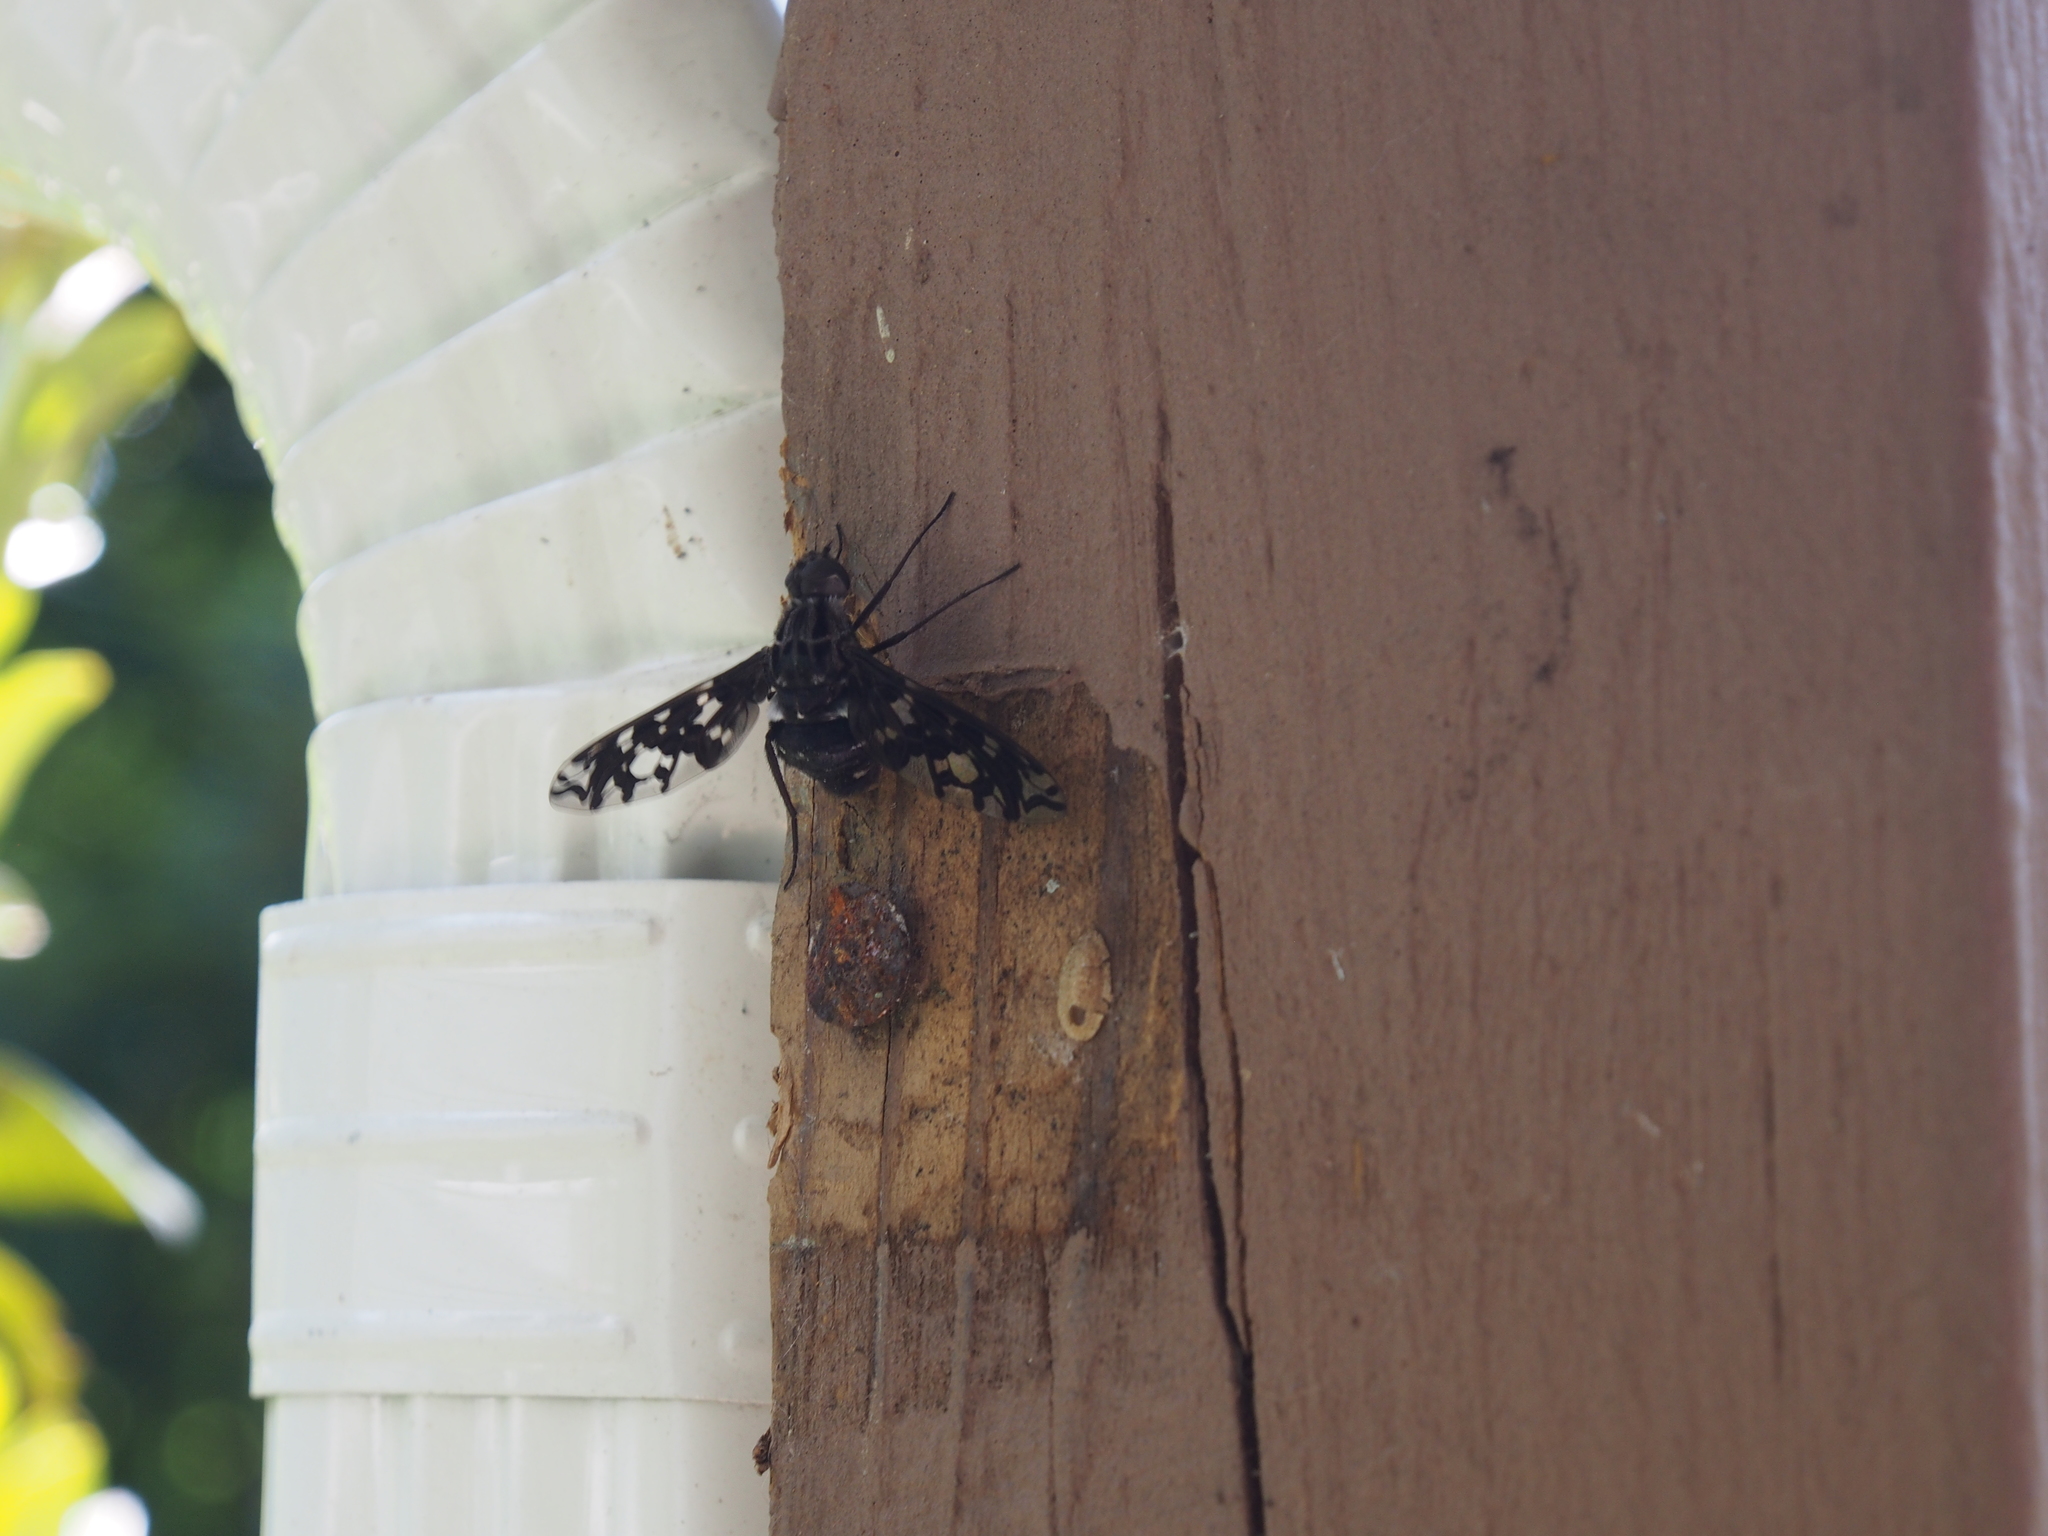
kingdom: Animalia
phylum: Arthropoda
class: Insecta
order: Diptera
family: Bombyliidae
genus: Xenox
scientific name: Xenox tigrinus
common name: Tiger bee fly
